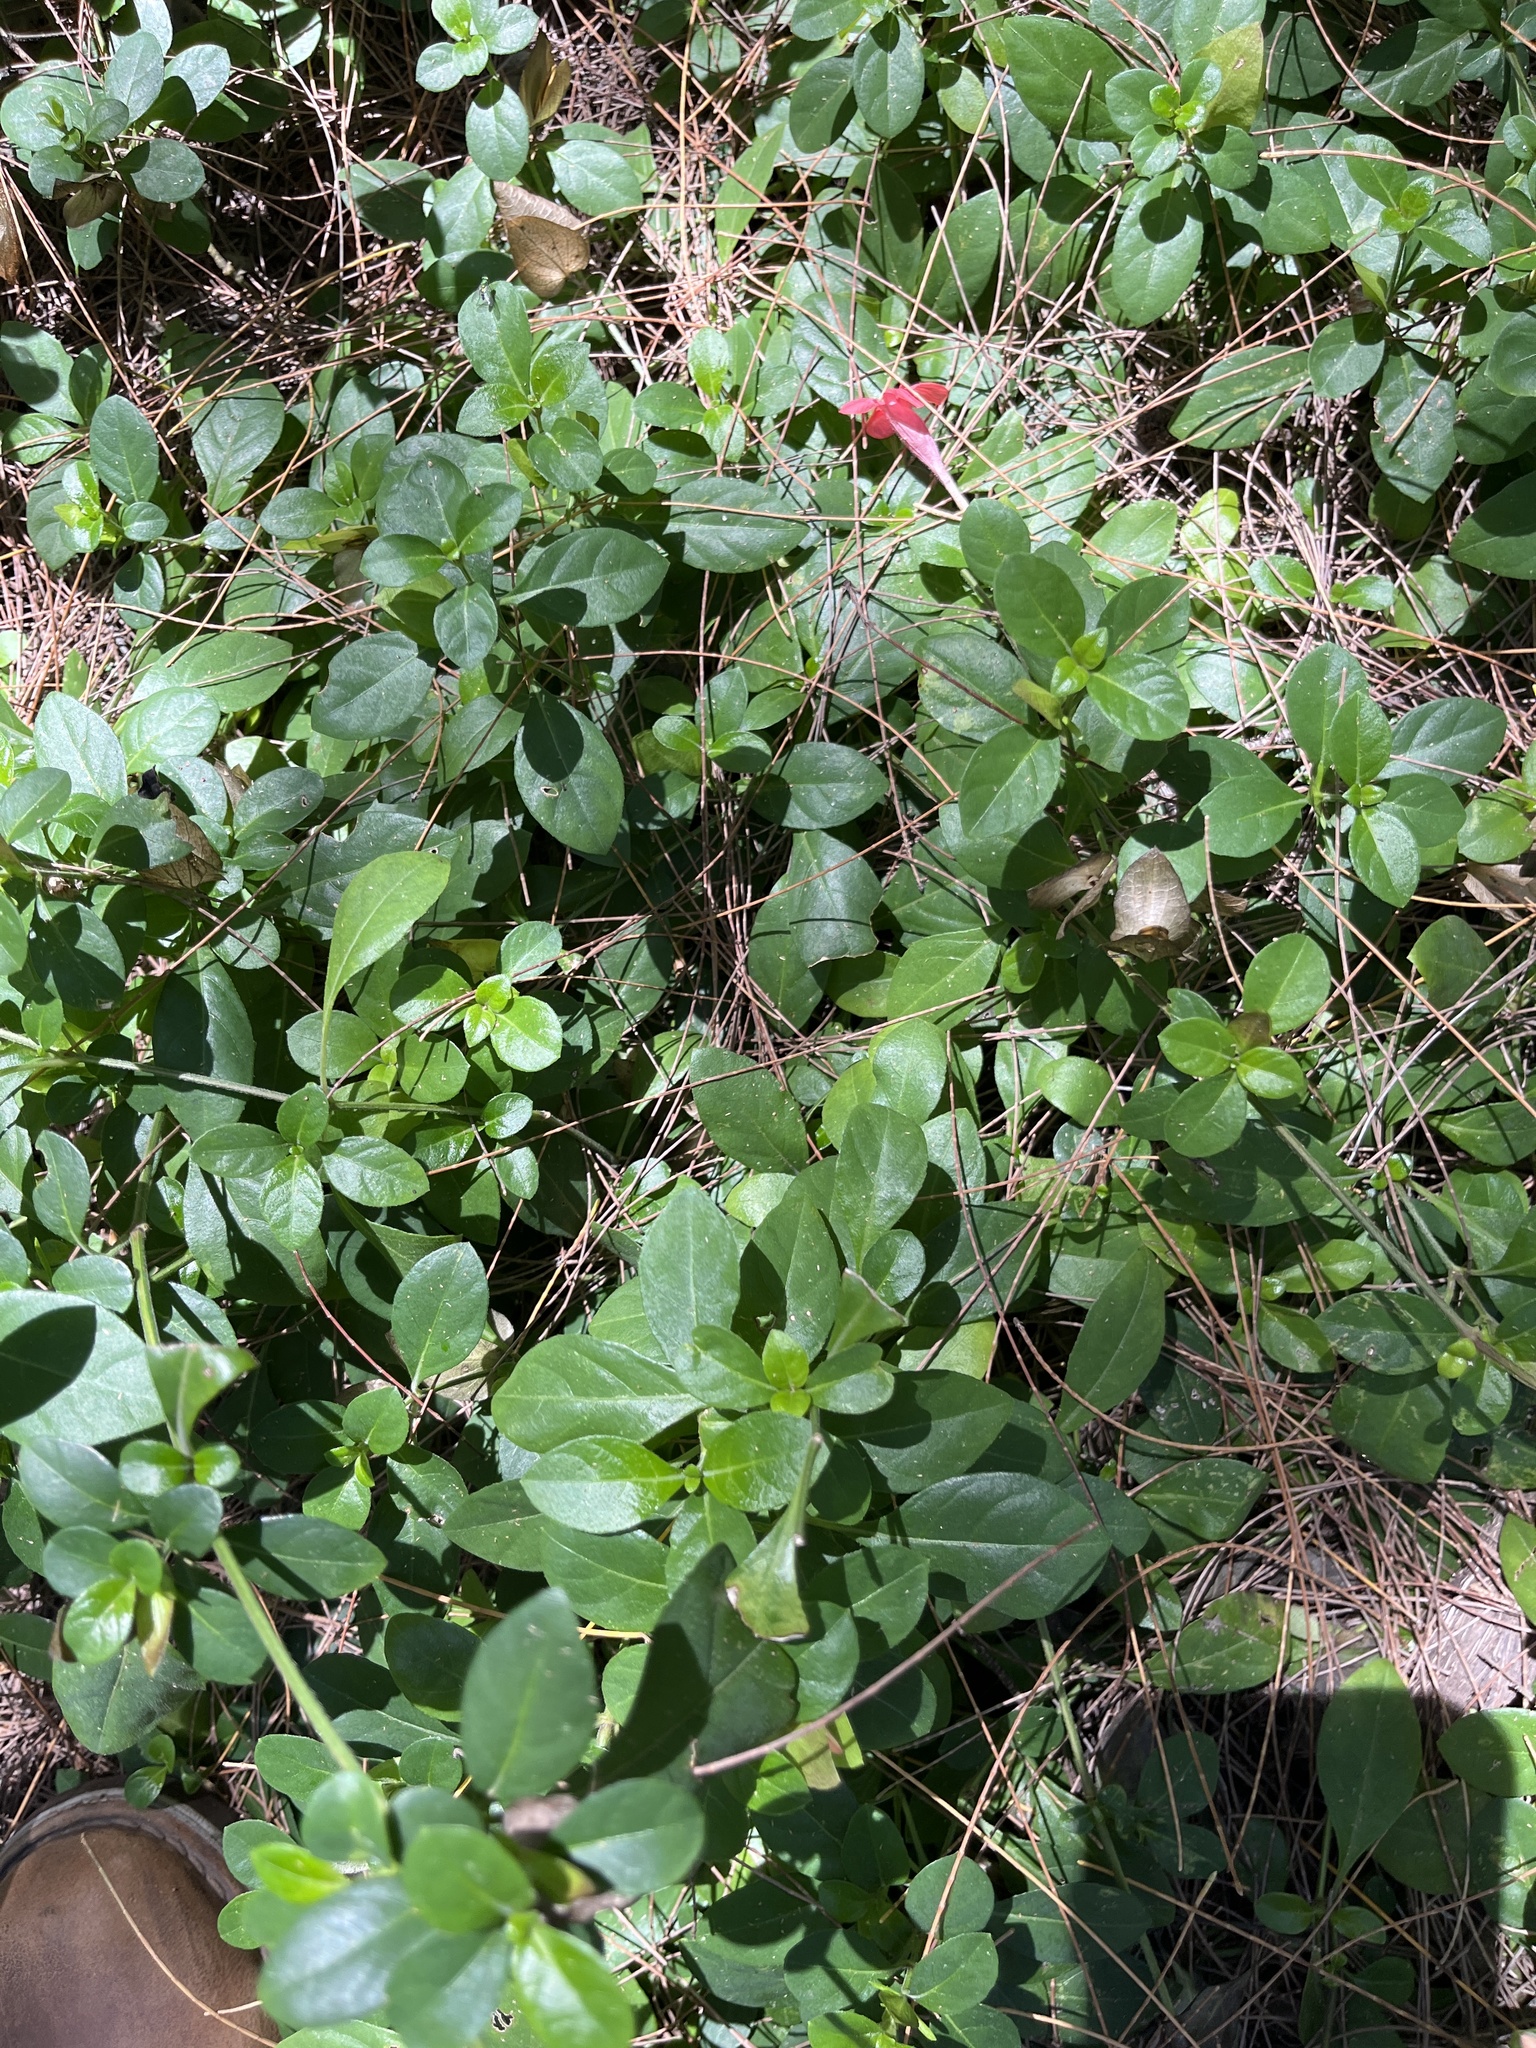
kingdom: Plantae
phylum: Tracheophyta
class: Magnoliopsida
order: Lamiales
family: Acanthaceae
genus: Barleria
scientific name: Barleria repens
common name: Pink-ruellia
